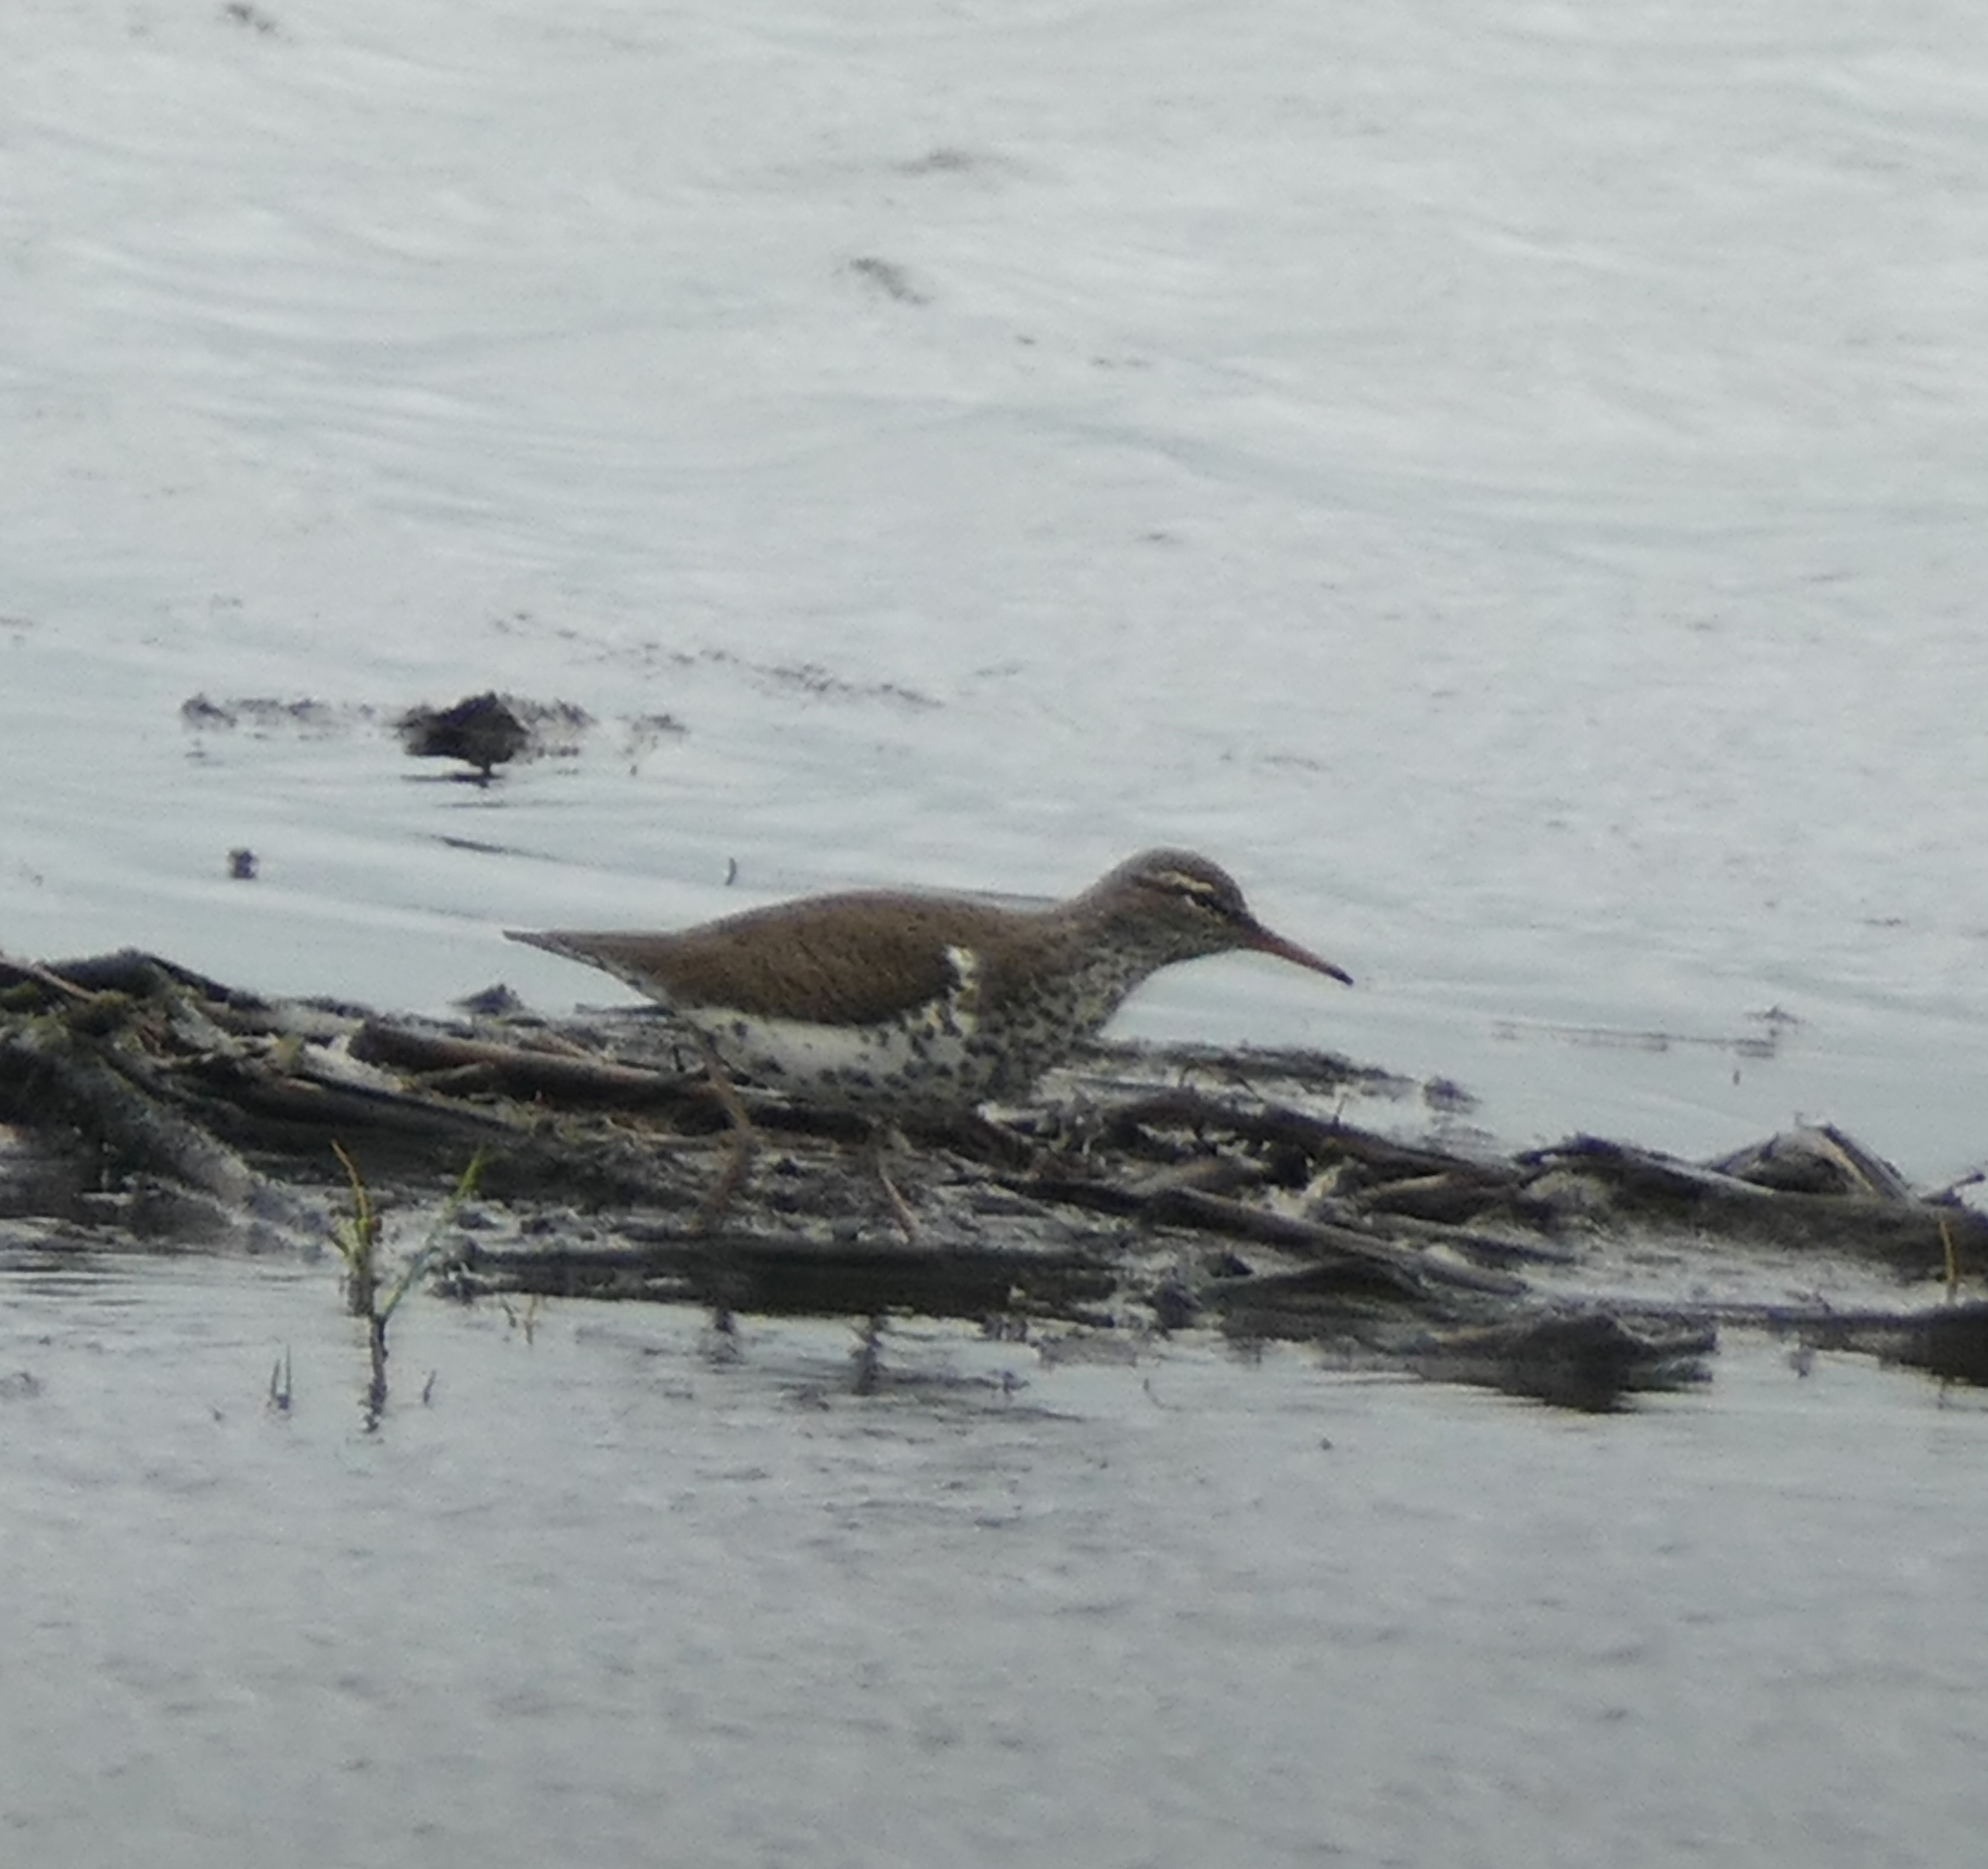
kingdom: Animalia
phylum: Chordata
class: Aves
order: Charadriiformes
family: Scolopacidae
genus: Actitis
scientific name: Actitis macularius
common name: Spotted sandpiper
